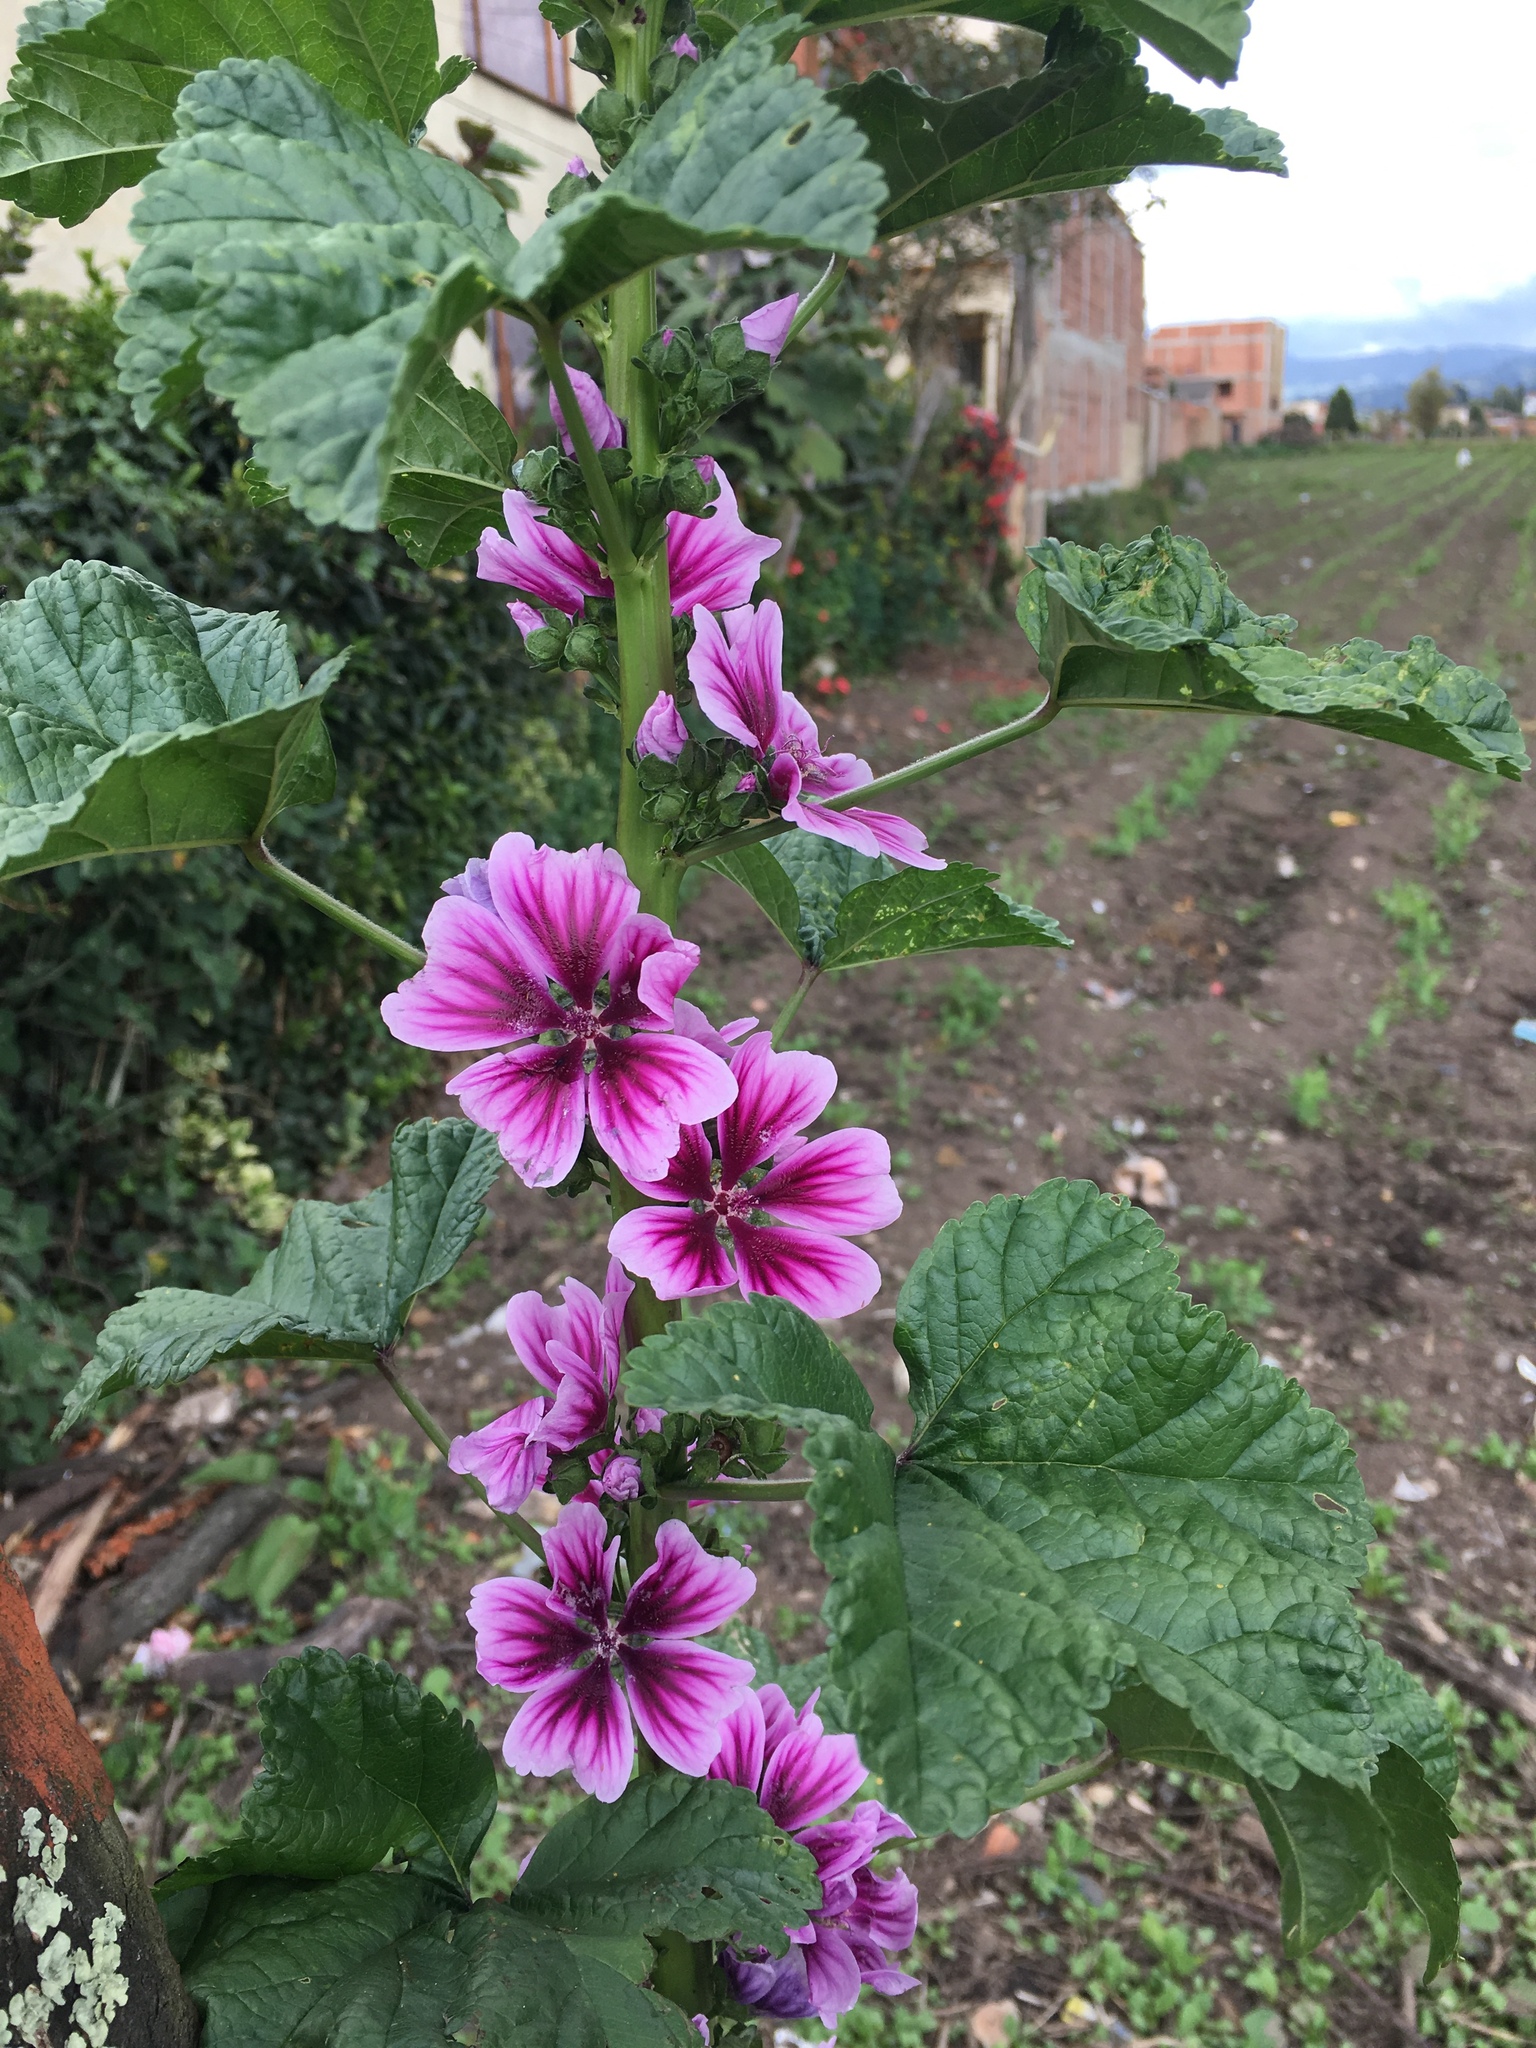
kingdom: Plantae
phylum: Tracheophyta
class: Magnoliopsida
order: Malvales
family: Malvaceae
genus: Malva
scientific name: Malva sylvestris
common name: Common mallow
